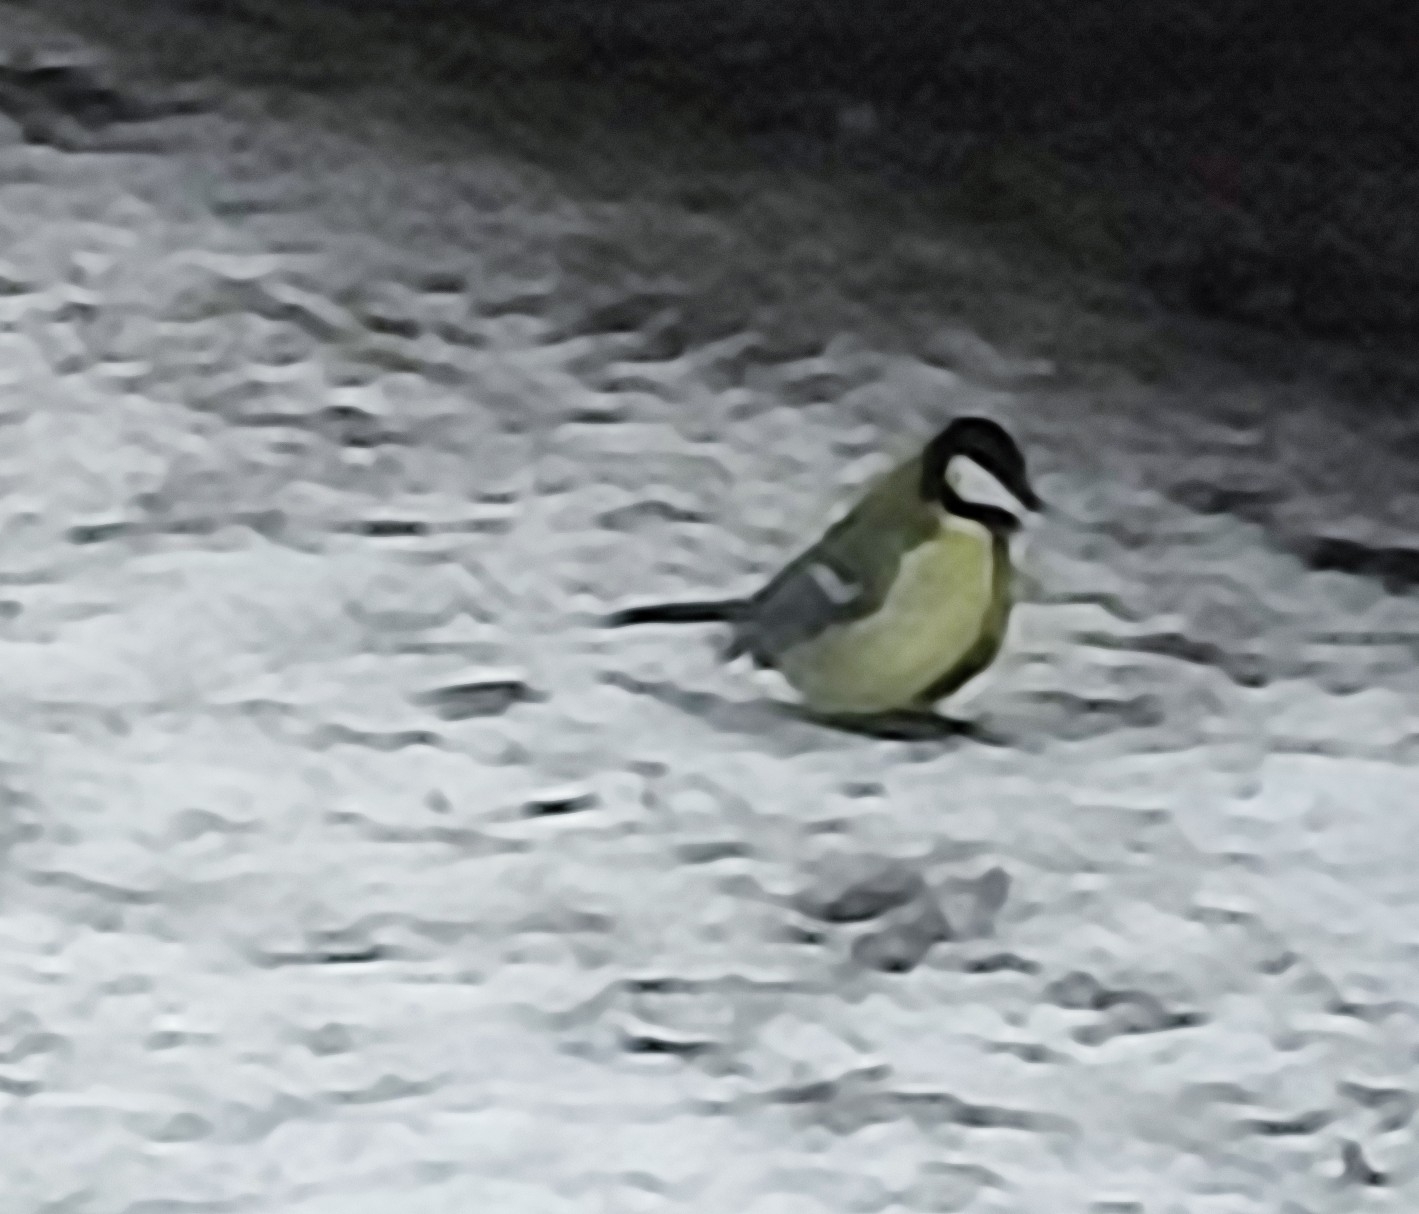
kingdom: Animalia
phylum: Chordata
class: Aves
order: Passeriformes
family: Paridae
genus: Parus
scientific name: Parus major
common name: Great tit
